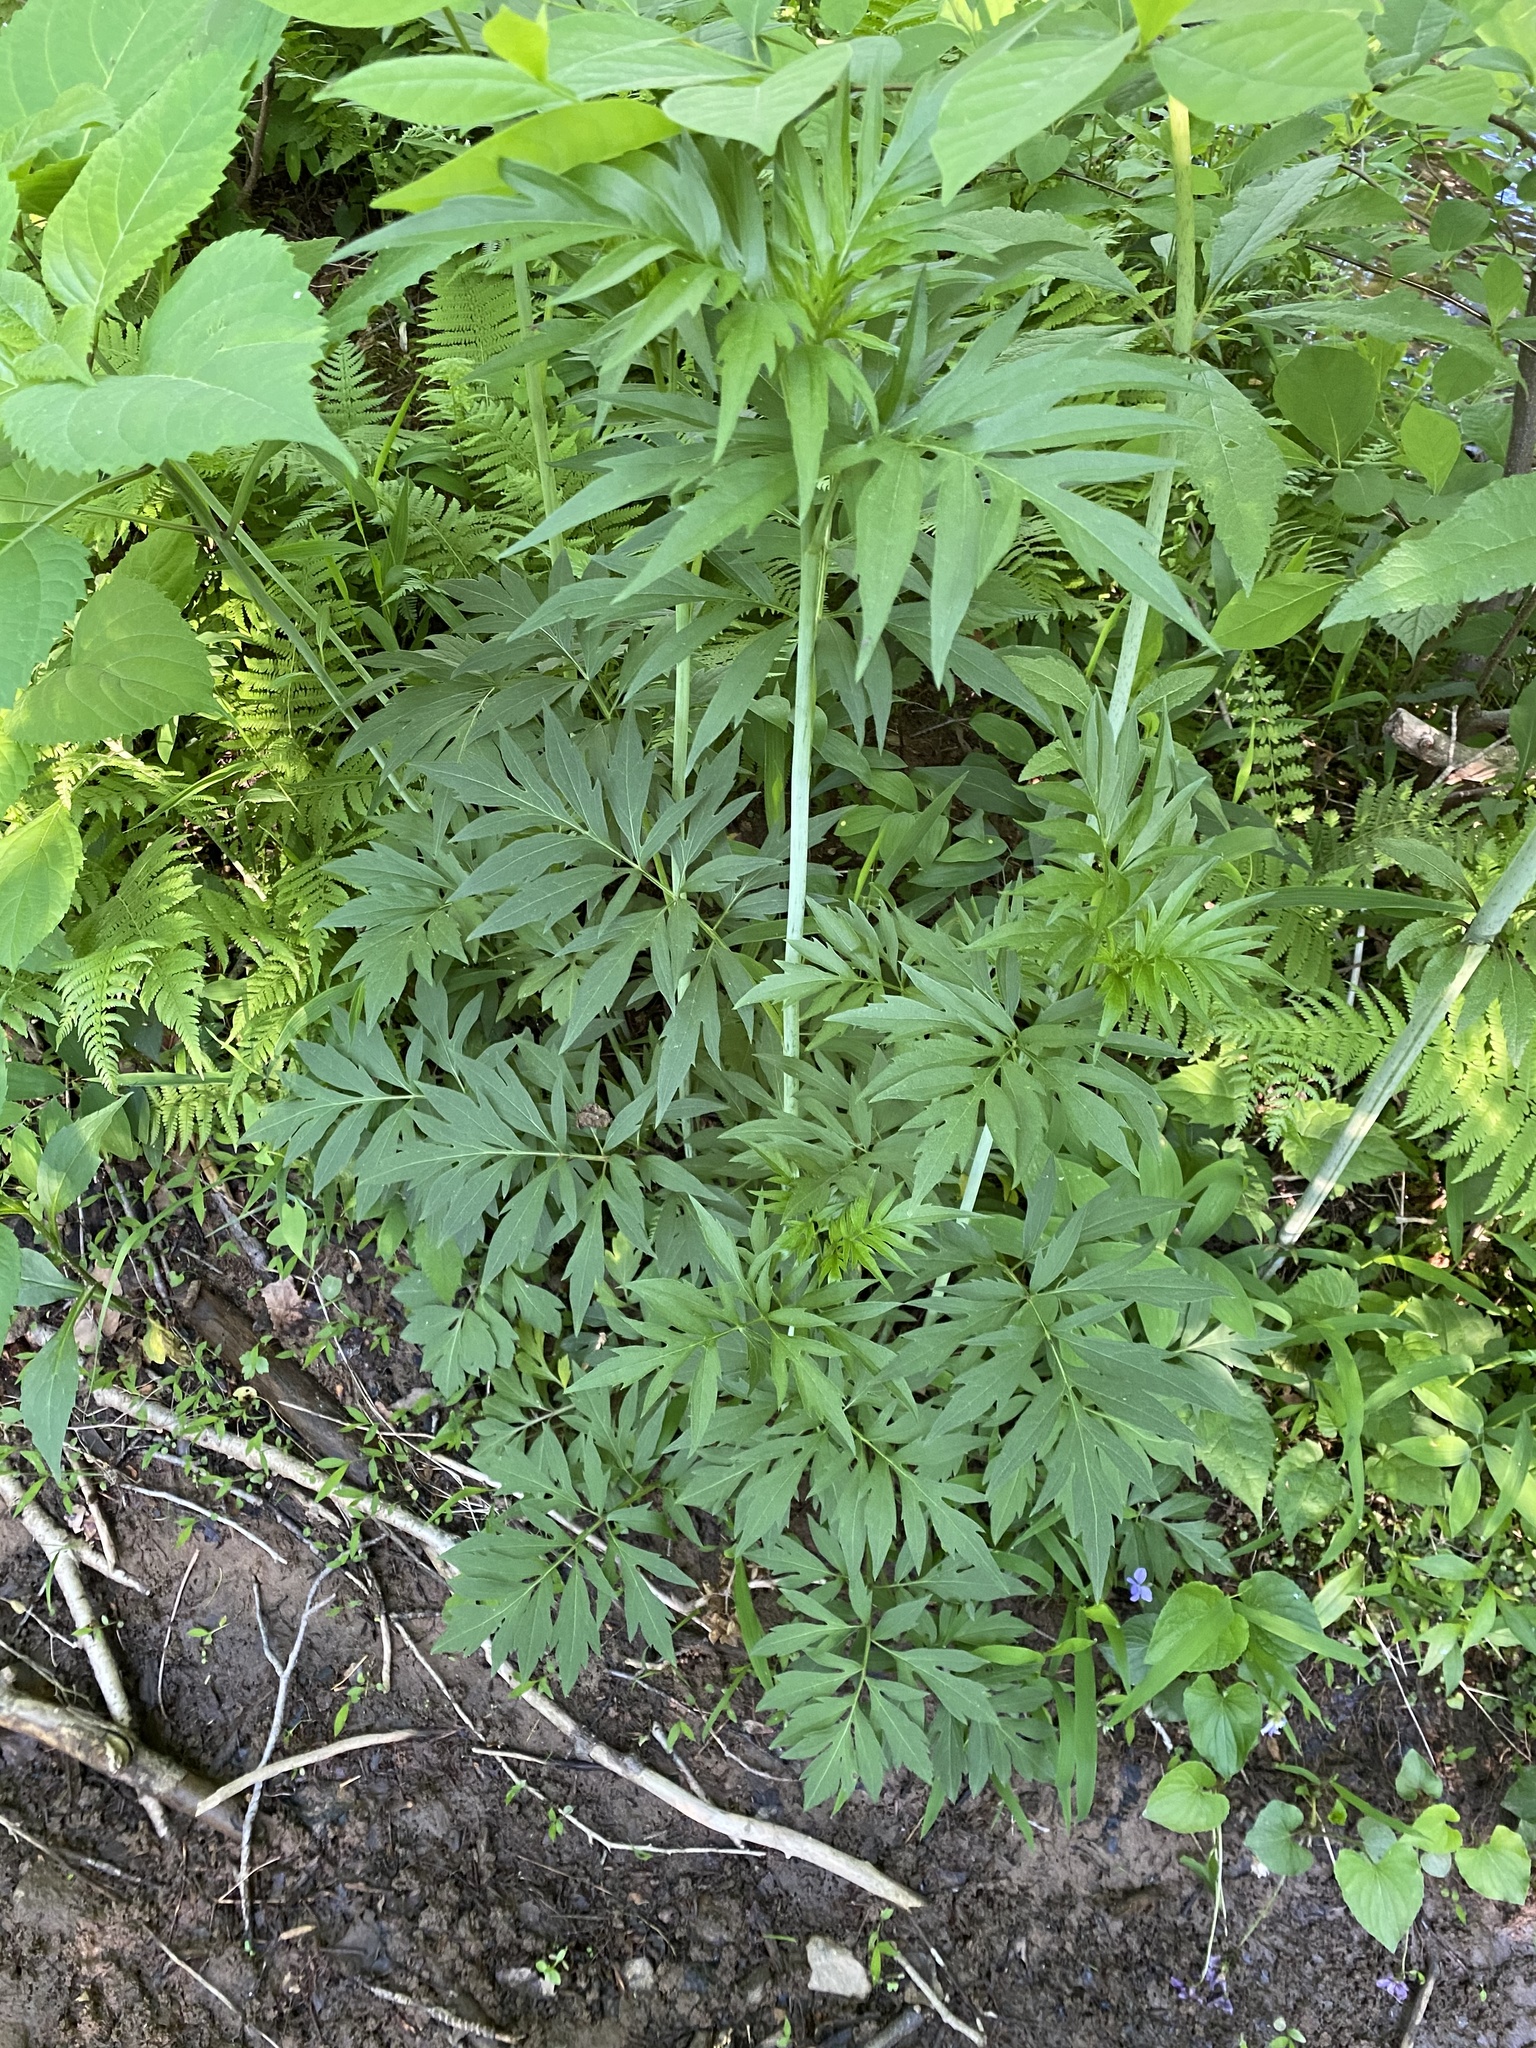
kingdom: Plantae
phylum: Tracheophyta
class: Magnoliopsida
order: Asterales
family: Asteraceae
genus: Rudbeckia
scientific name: Rudbeckia laciniata
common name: Coneflower
